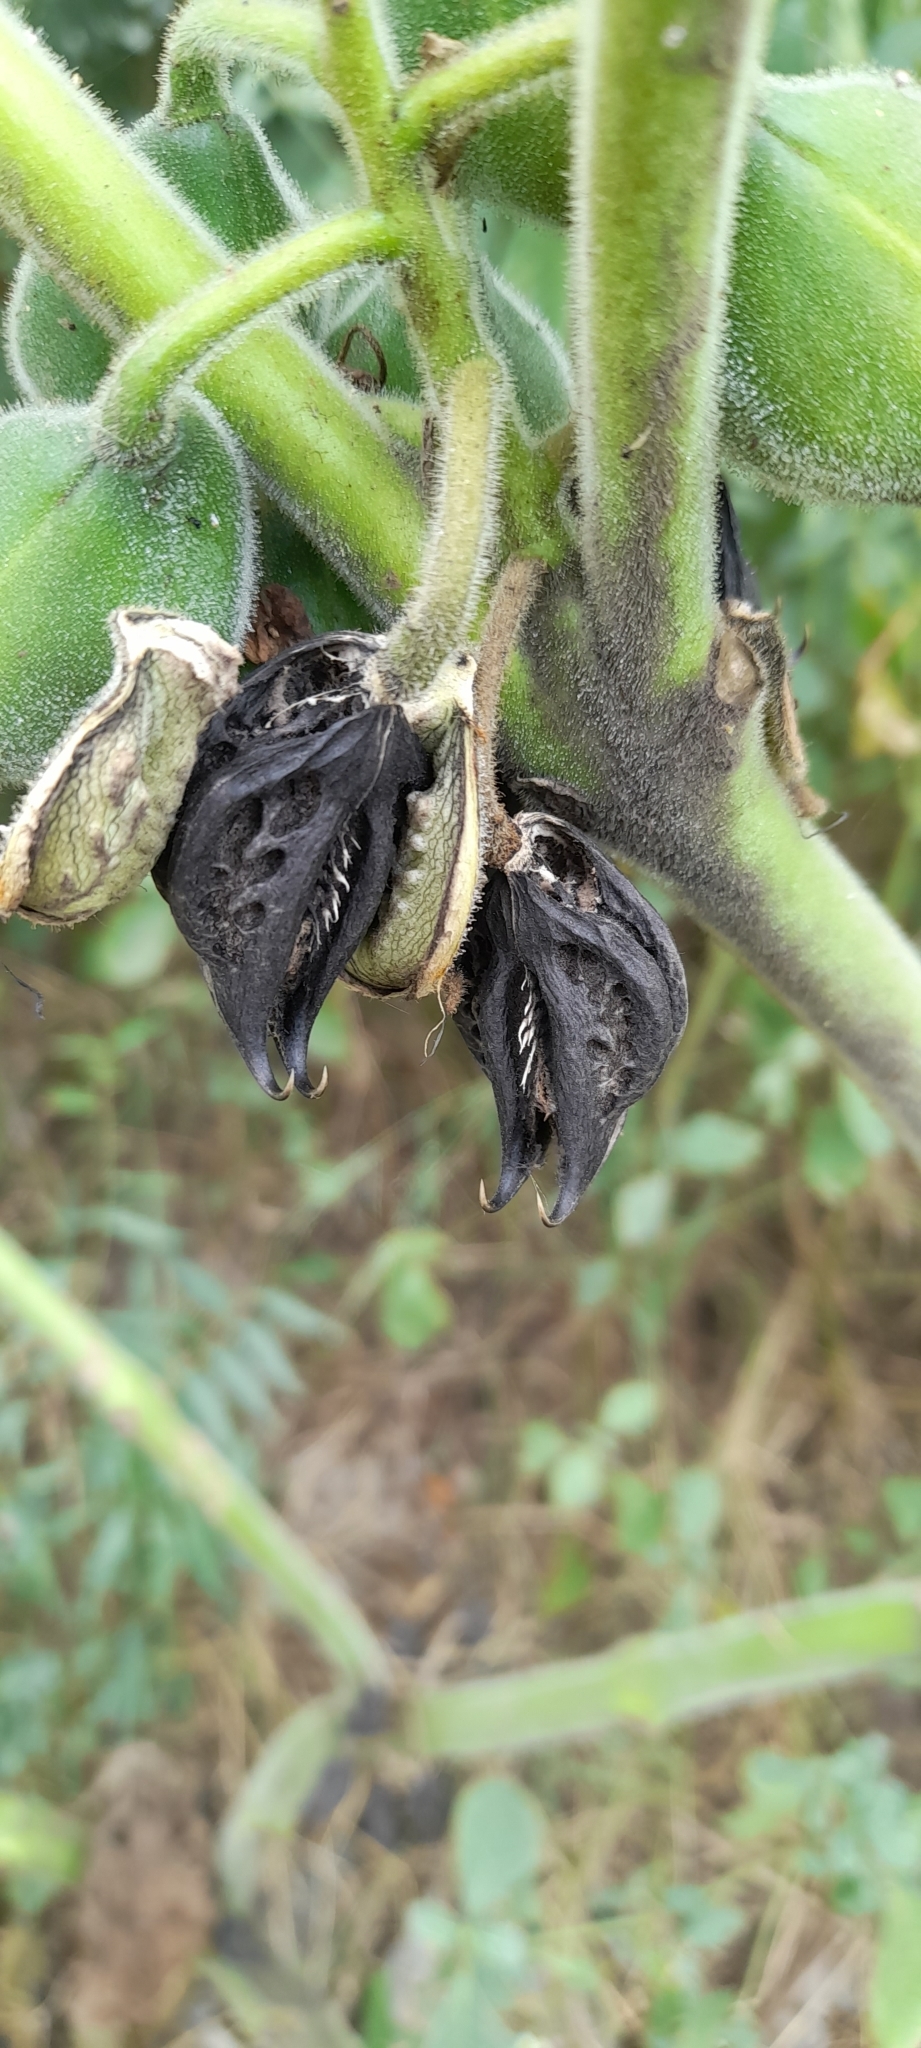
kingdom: Plantae
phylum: Tracheophyta
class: Magnoliopsida
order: Lamiales
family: Martyniaceae
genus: Martynia
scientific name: Martynia annua
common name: Tiger's-claw
